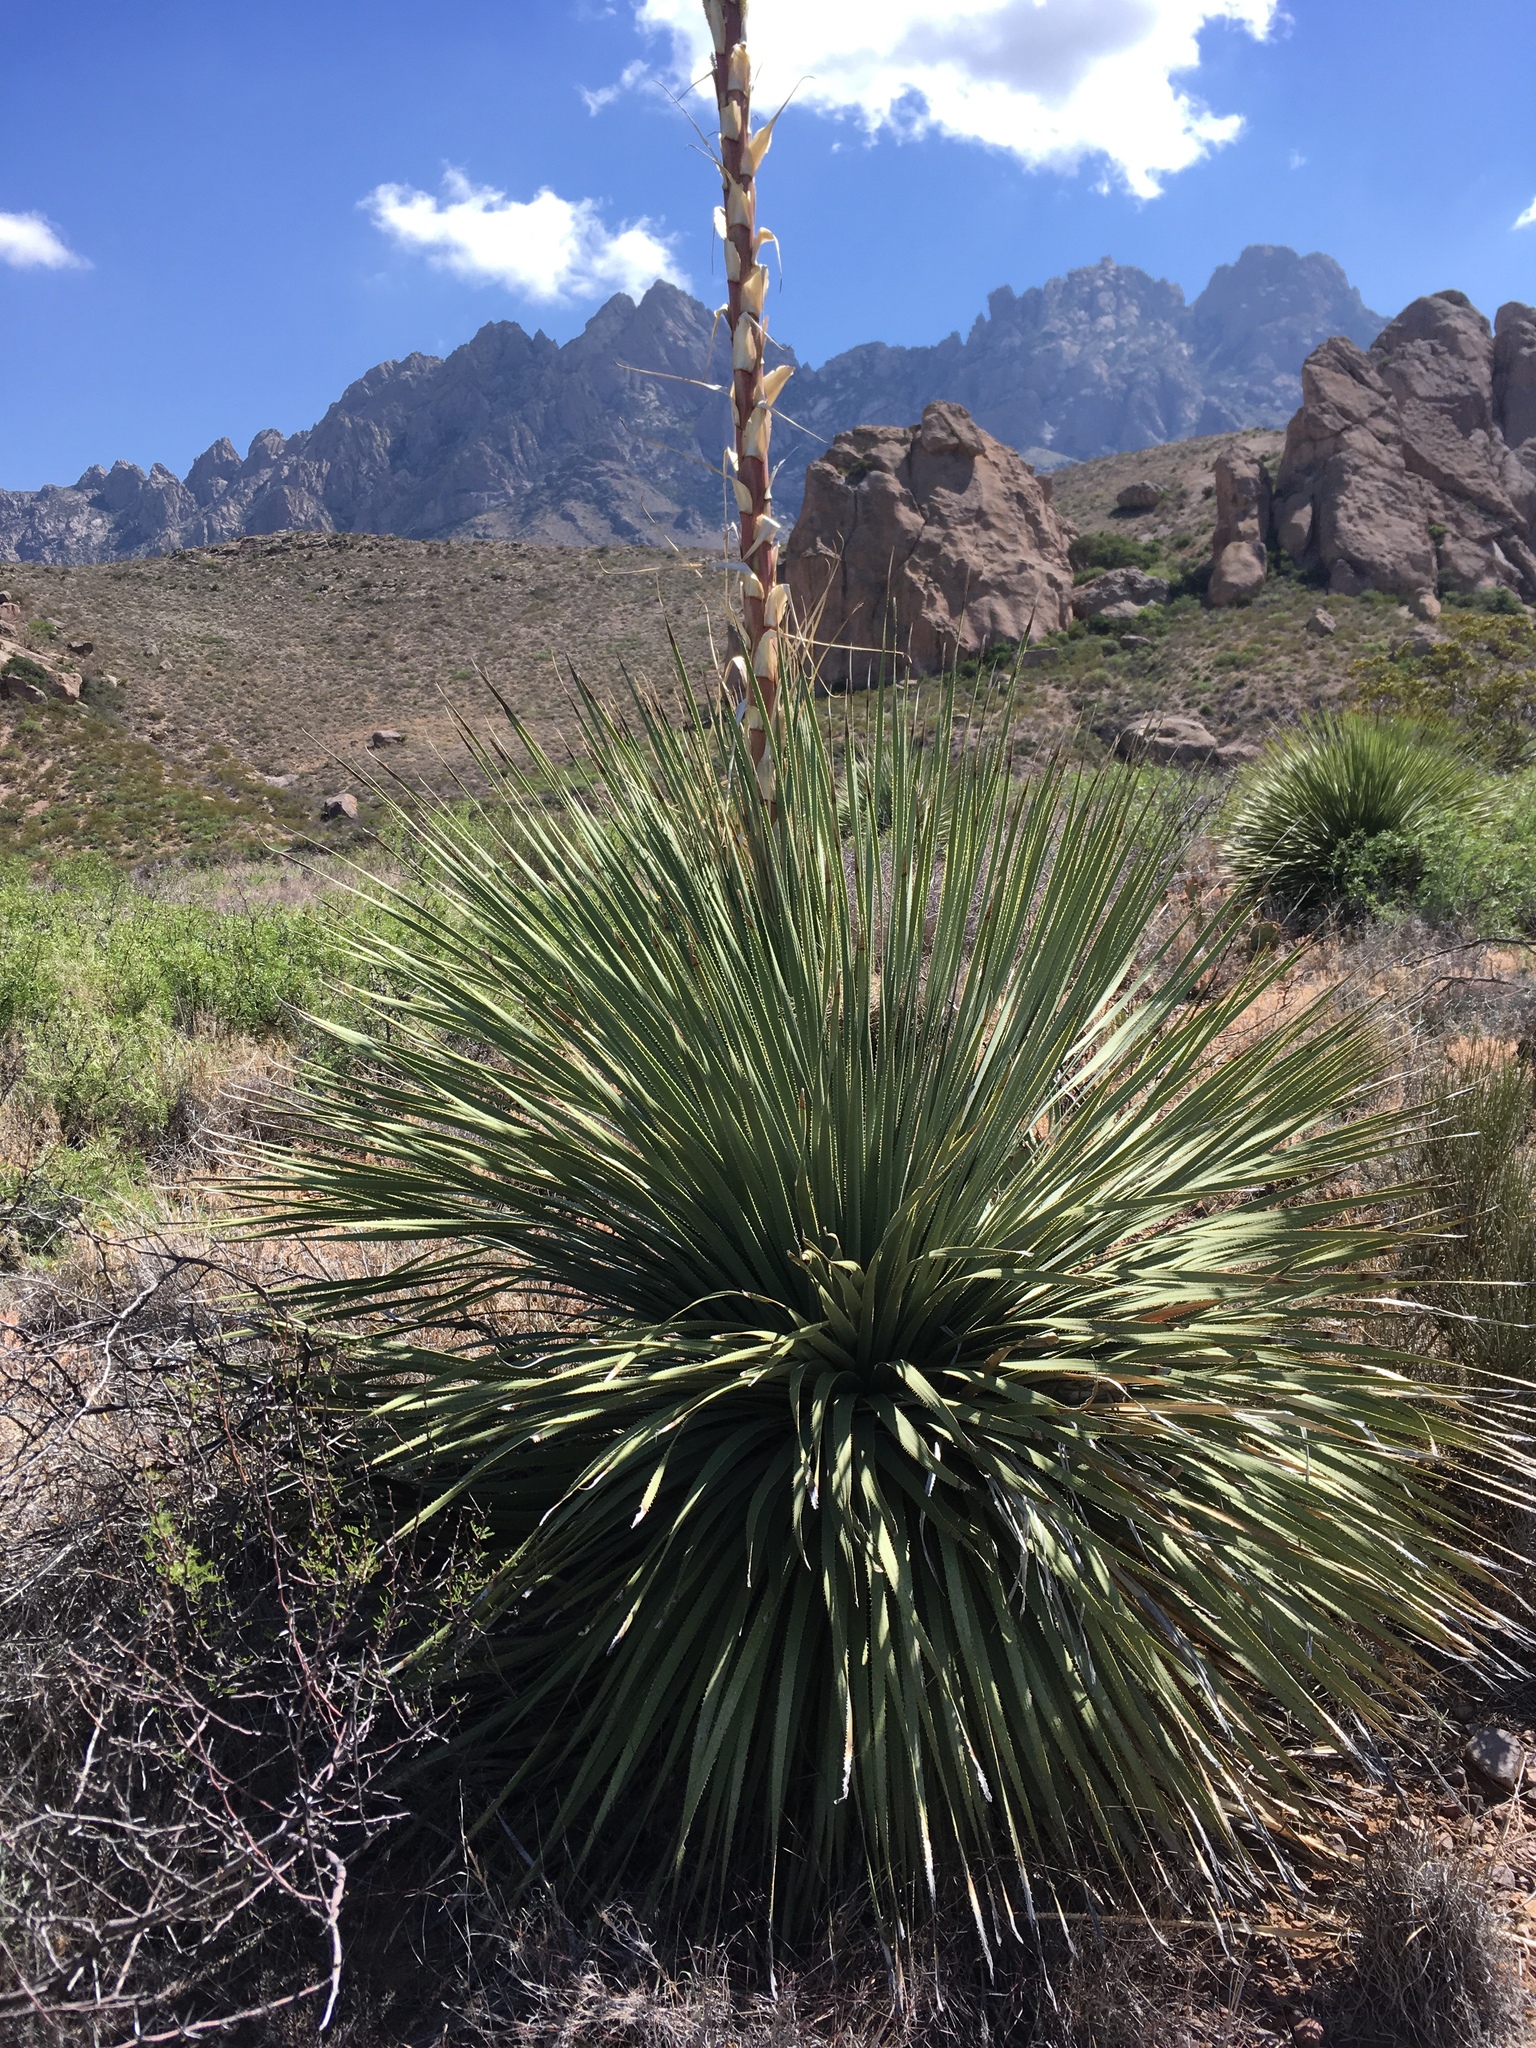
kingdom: Plantae
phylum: Tracheophyta
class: Liliopsida
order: Asparagales
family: Asparagaceae
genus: Dasylirion
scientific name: Dasylirion wheeleri
